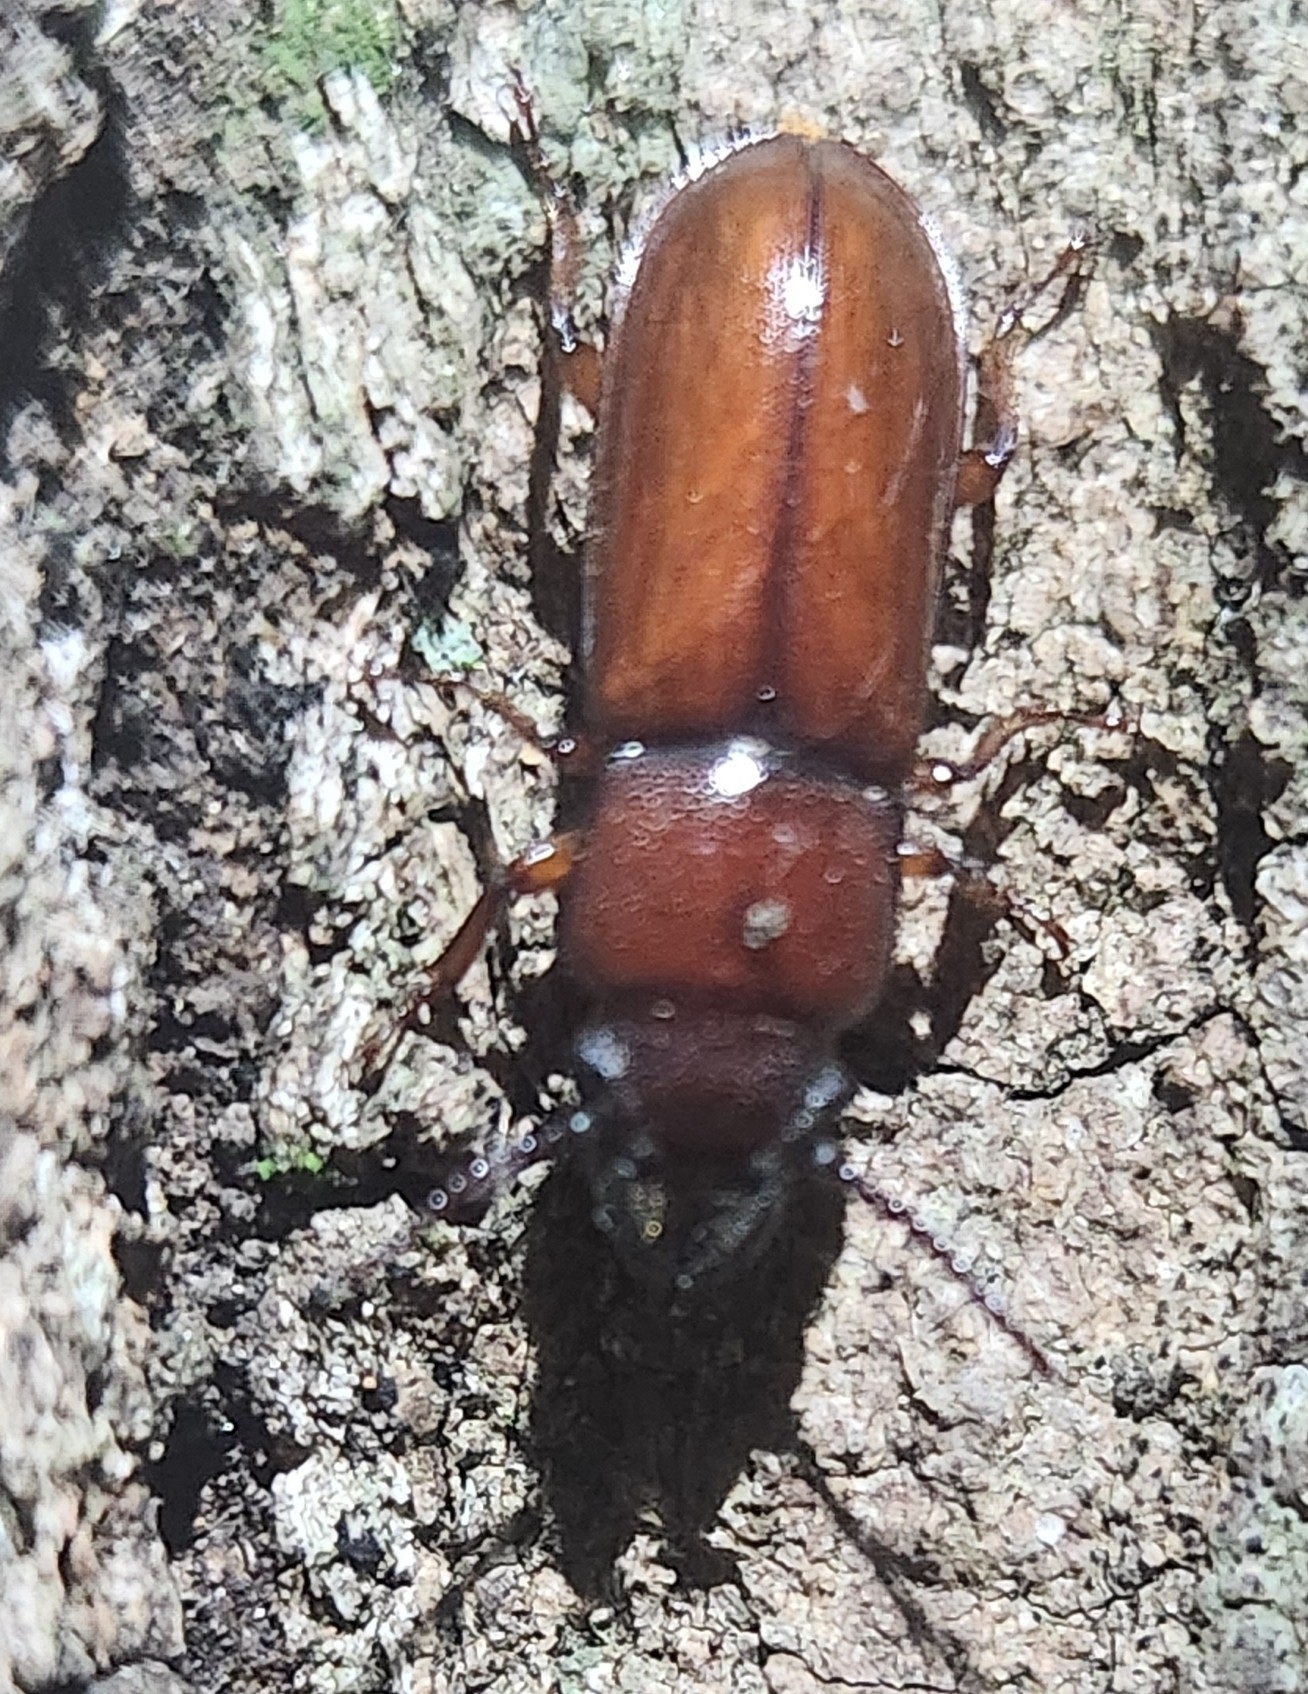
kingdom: Animalia
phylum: Arthropoda
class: Insecta
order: Coleoptera
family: Cerambycidae
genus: Neandra
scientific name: Neandra brunnea
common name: Pole borer
